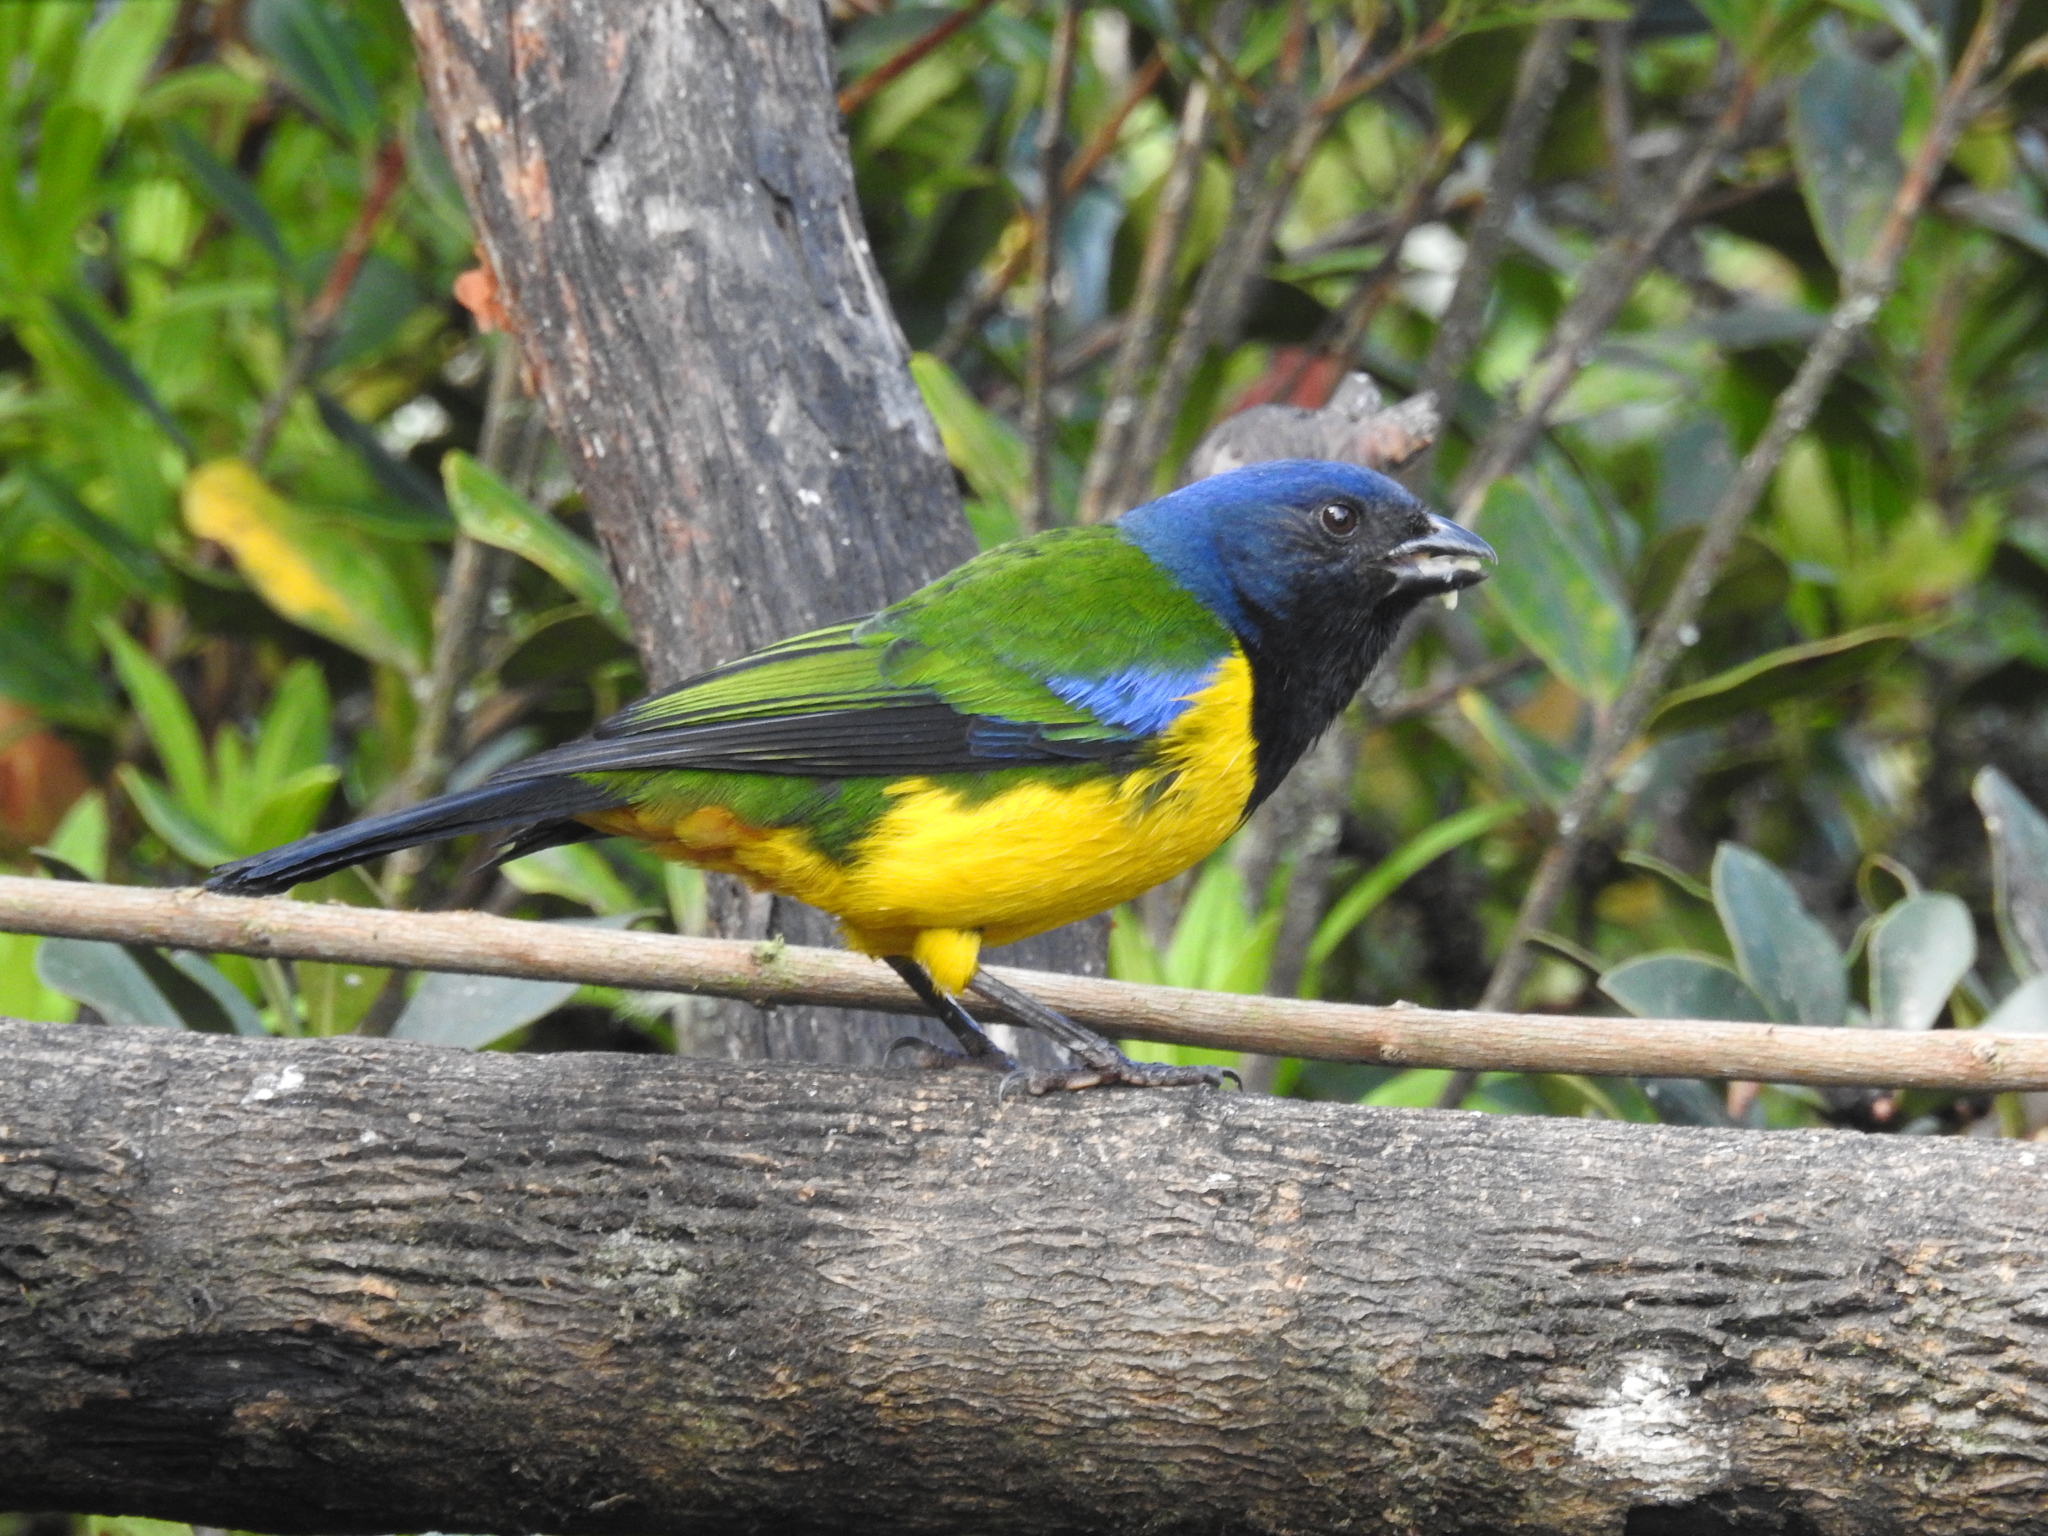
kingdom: Animalia
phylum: Chordata
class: Aves
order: Passeriformes
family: Thraupidae
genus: Cnemathraupis
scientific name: Cnemathraupis eximia
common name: Black-chested mountain-tanager
